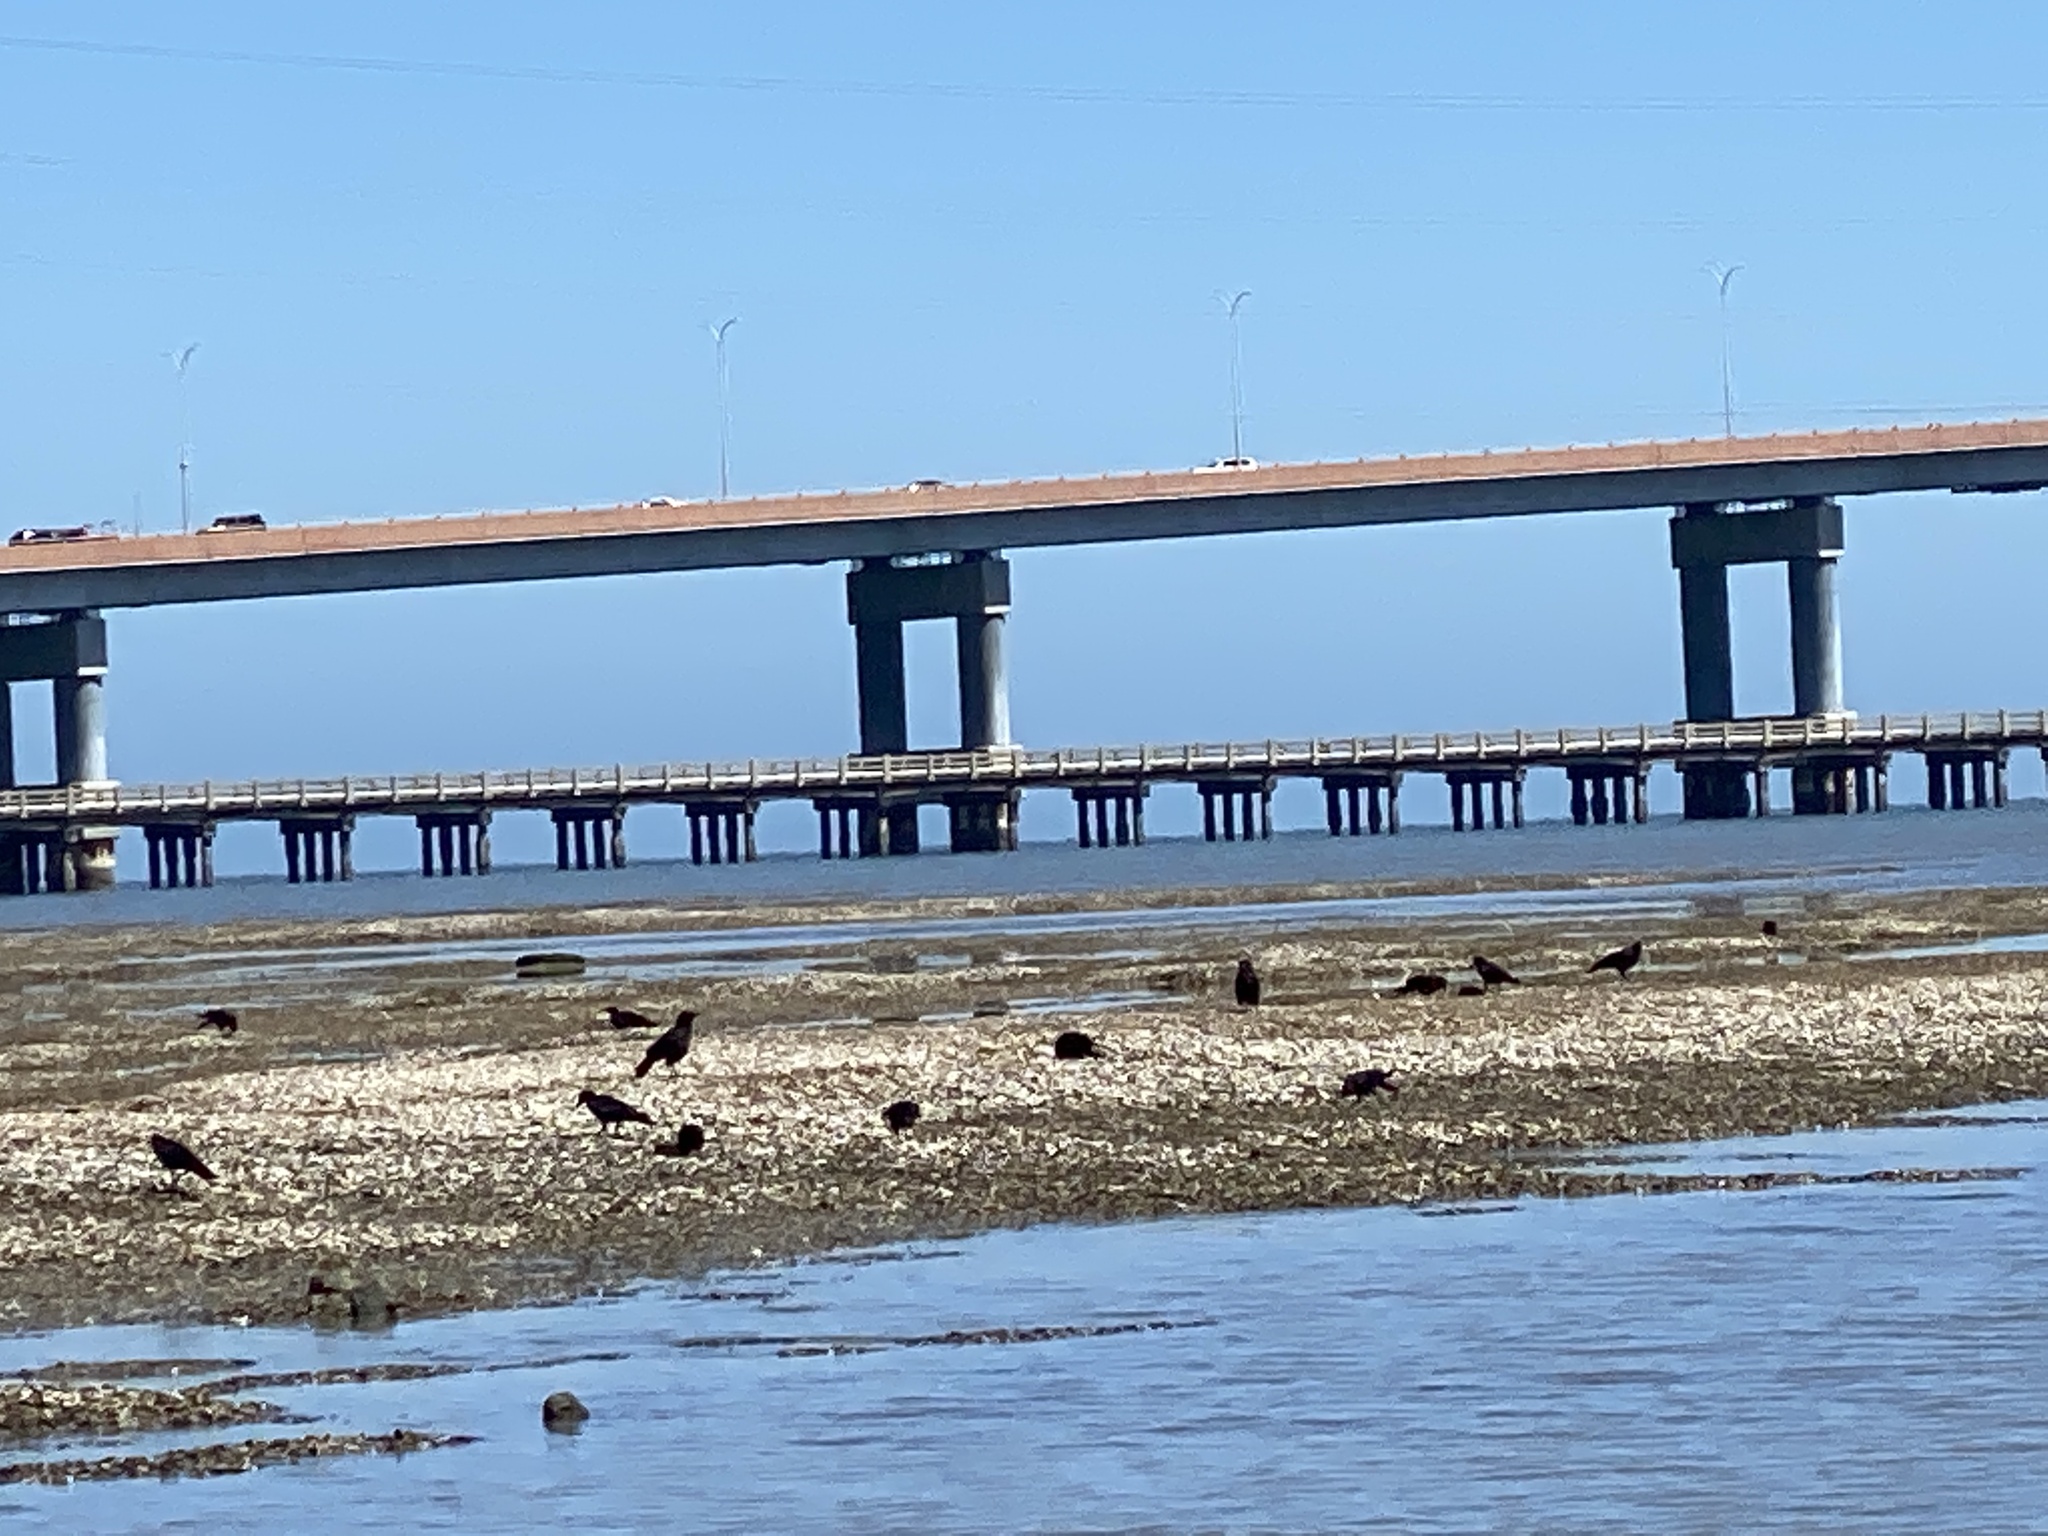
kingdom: Animalia
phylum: Chordata
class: Aves
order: Passeriformes
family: Corvidae
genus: Corvus
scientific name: Corvus brachyrhynchos
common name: American crow
